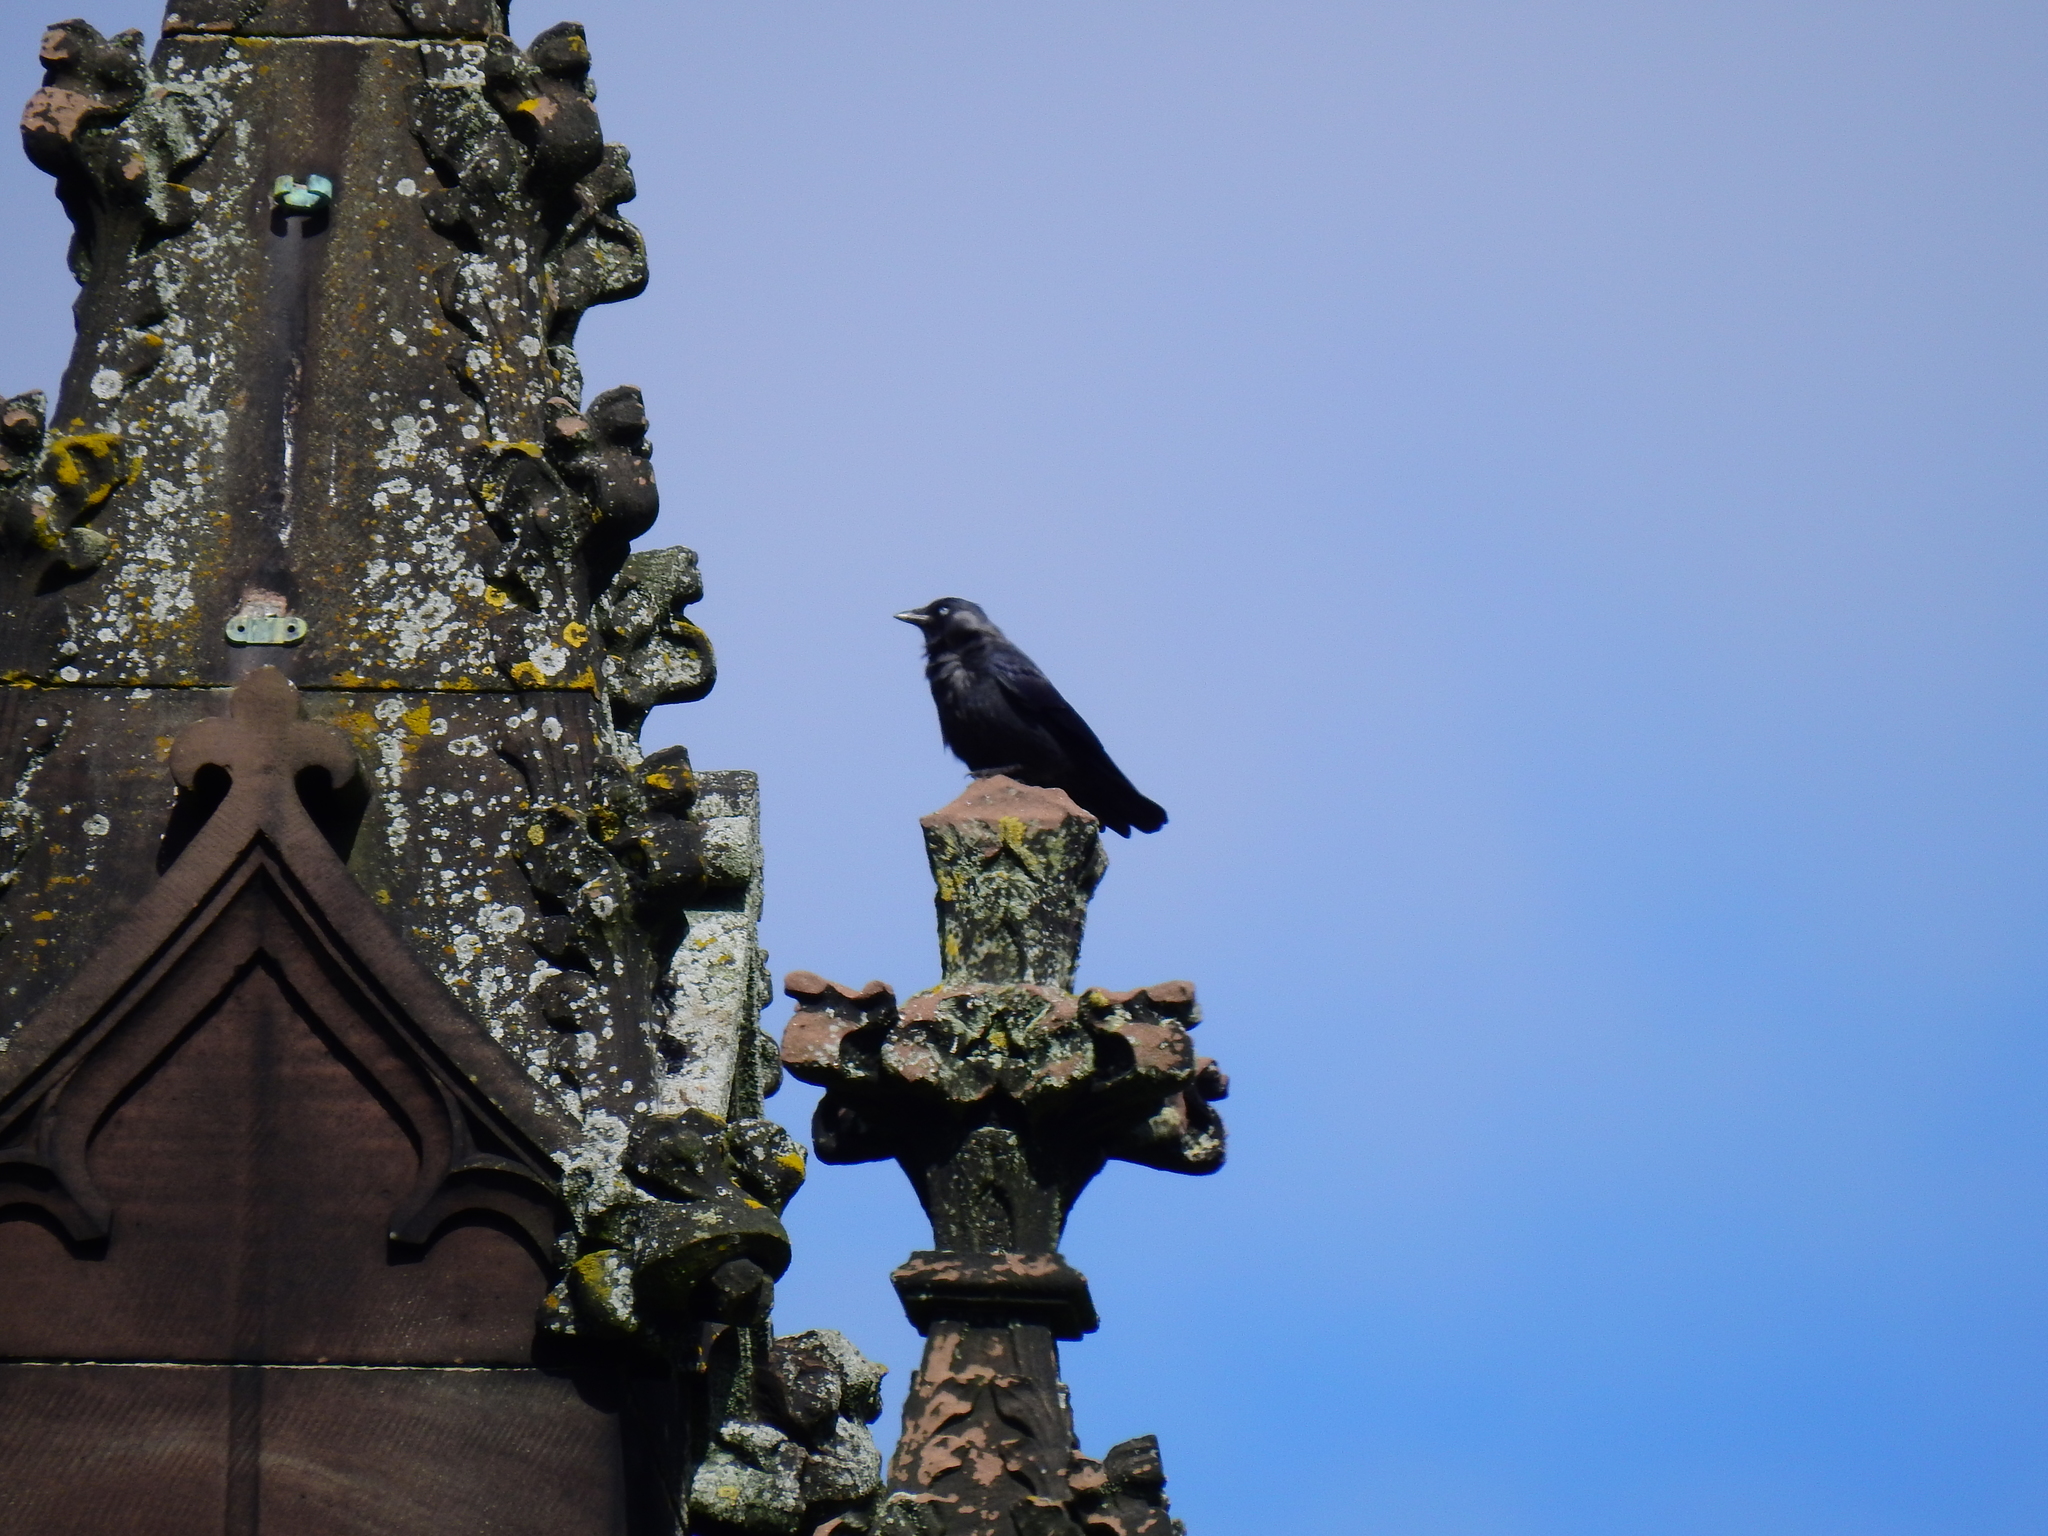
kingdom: Animalia
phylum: Chordata
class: Aves
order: Passeriformes
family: Corvidae
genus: Coloeus
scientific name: Coloeus monedula
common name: Western jackdaw
